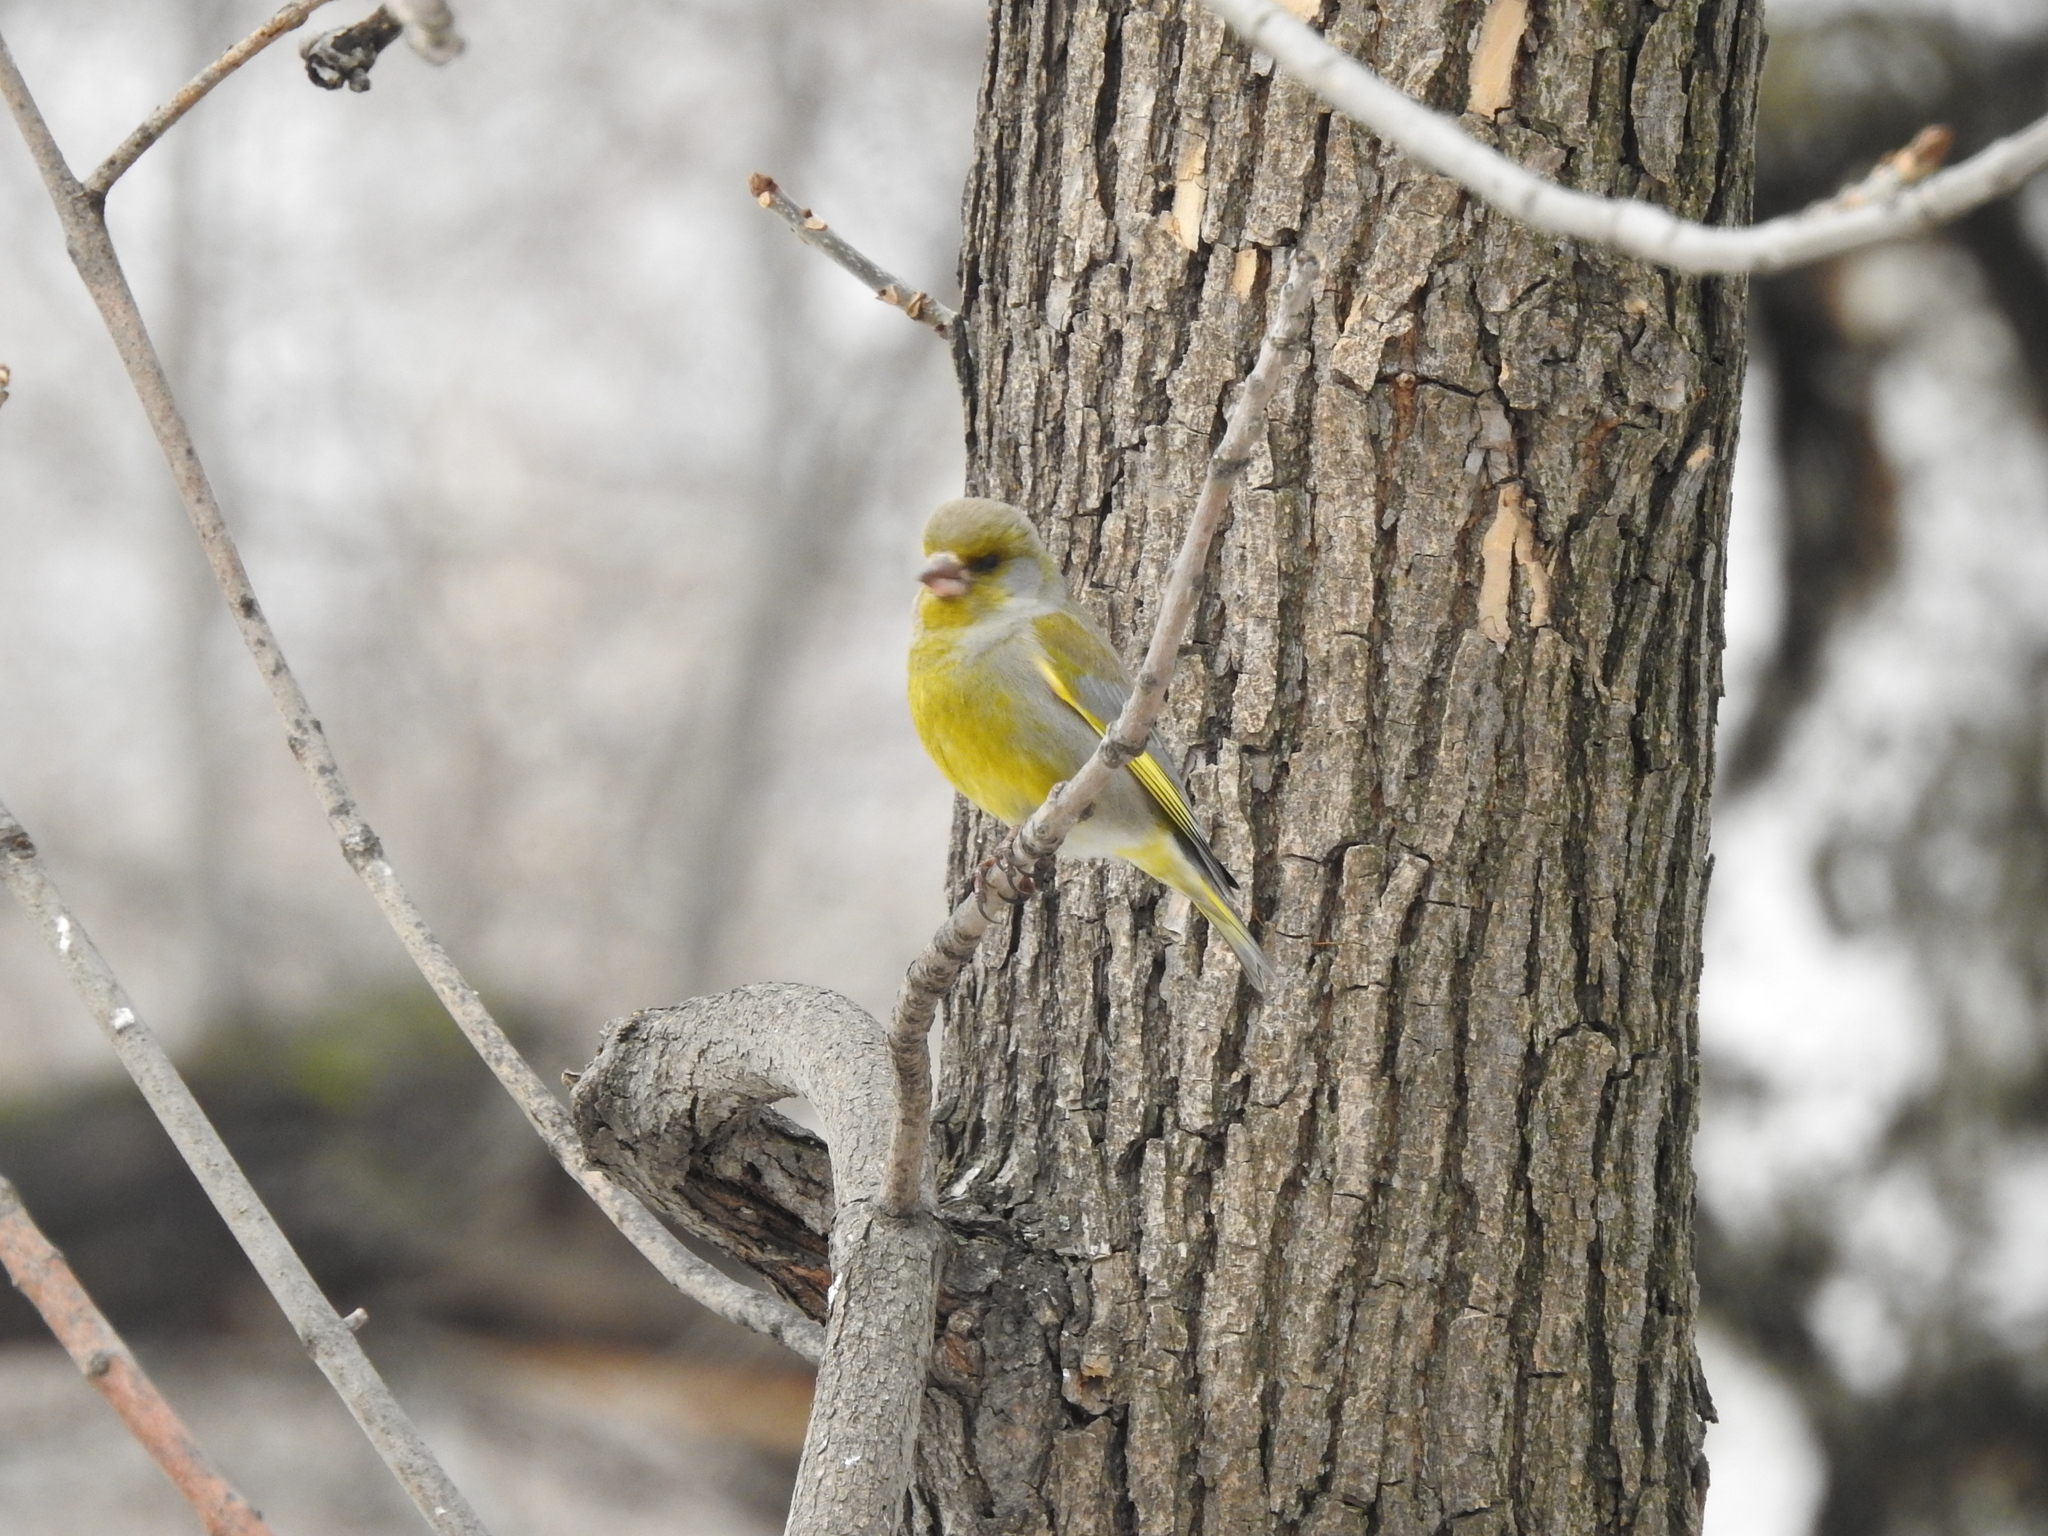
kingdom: Plantae
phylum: Tracheophyta
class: Liliopsida
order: Poales
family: Poaceae
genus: Chloris
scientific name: Chloris chloris
